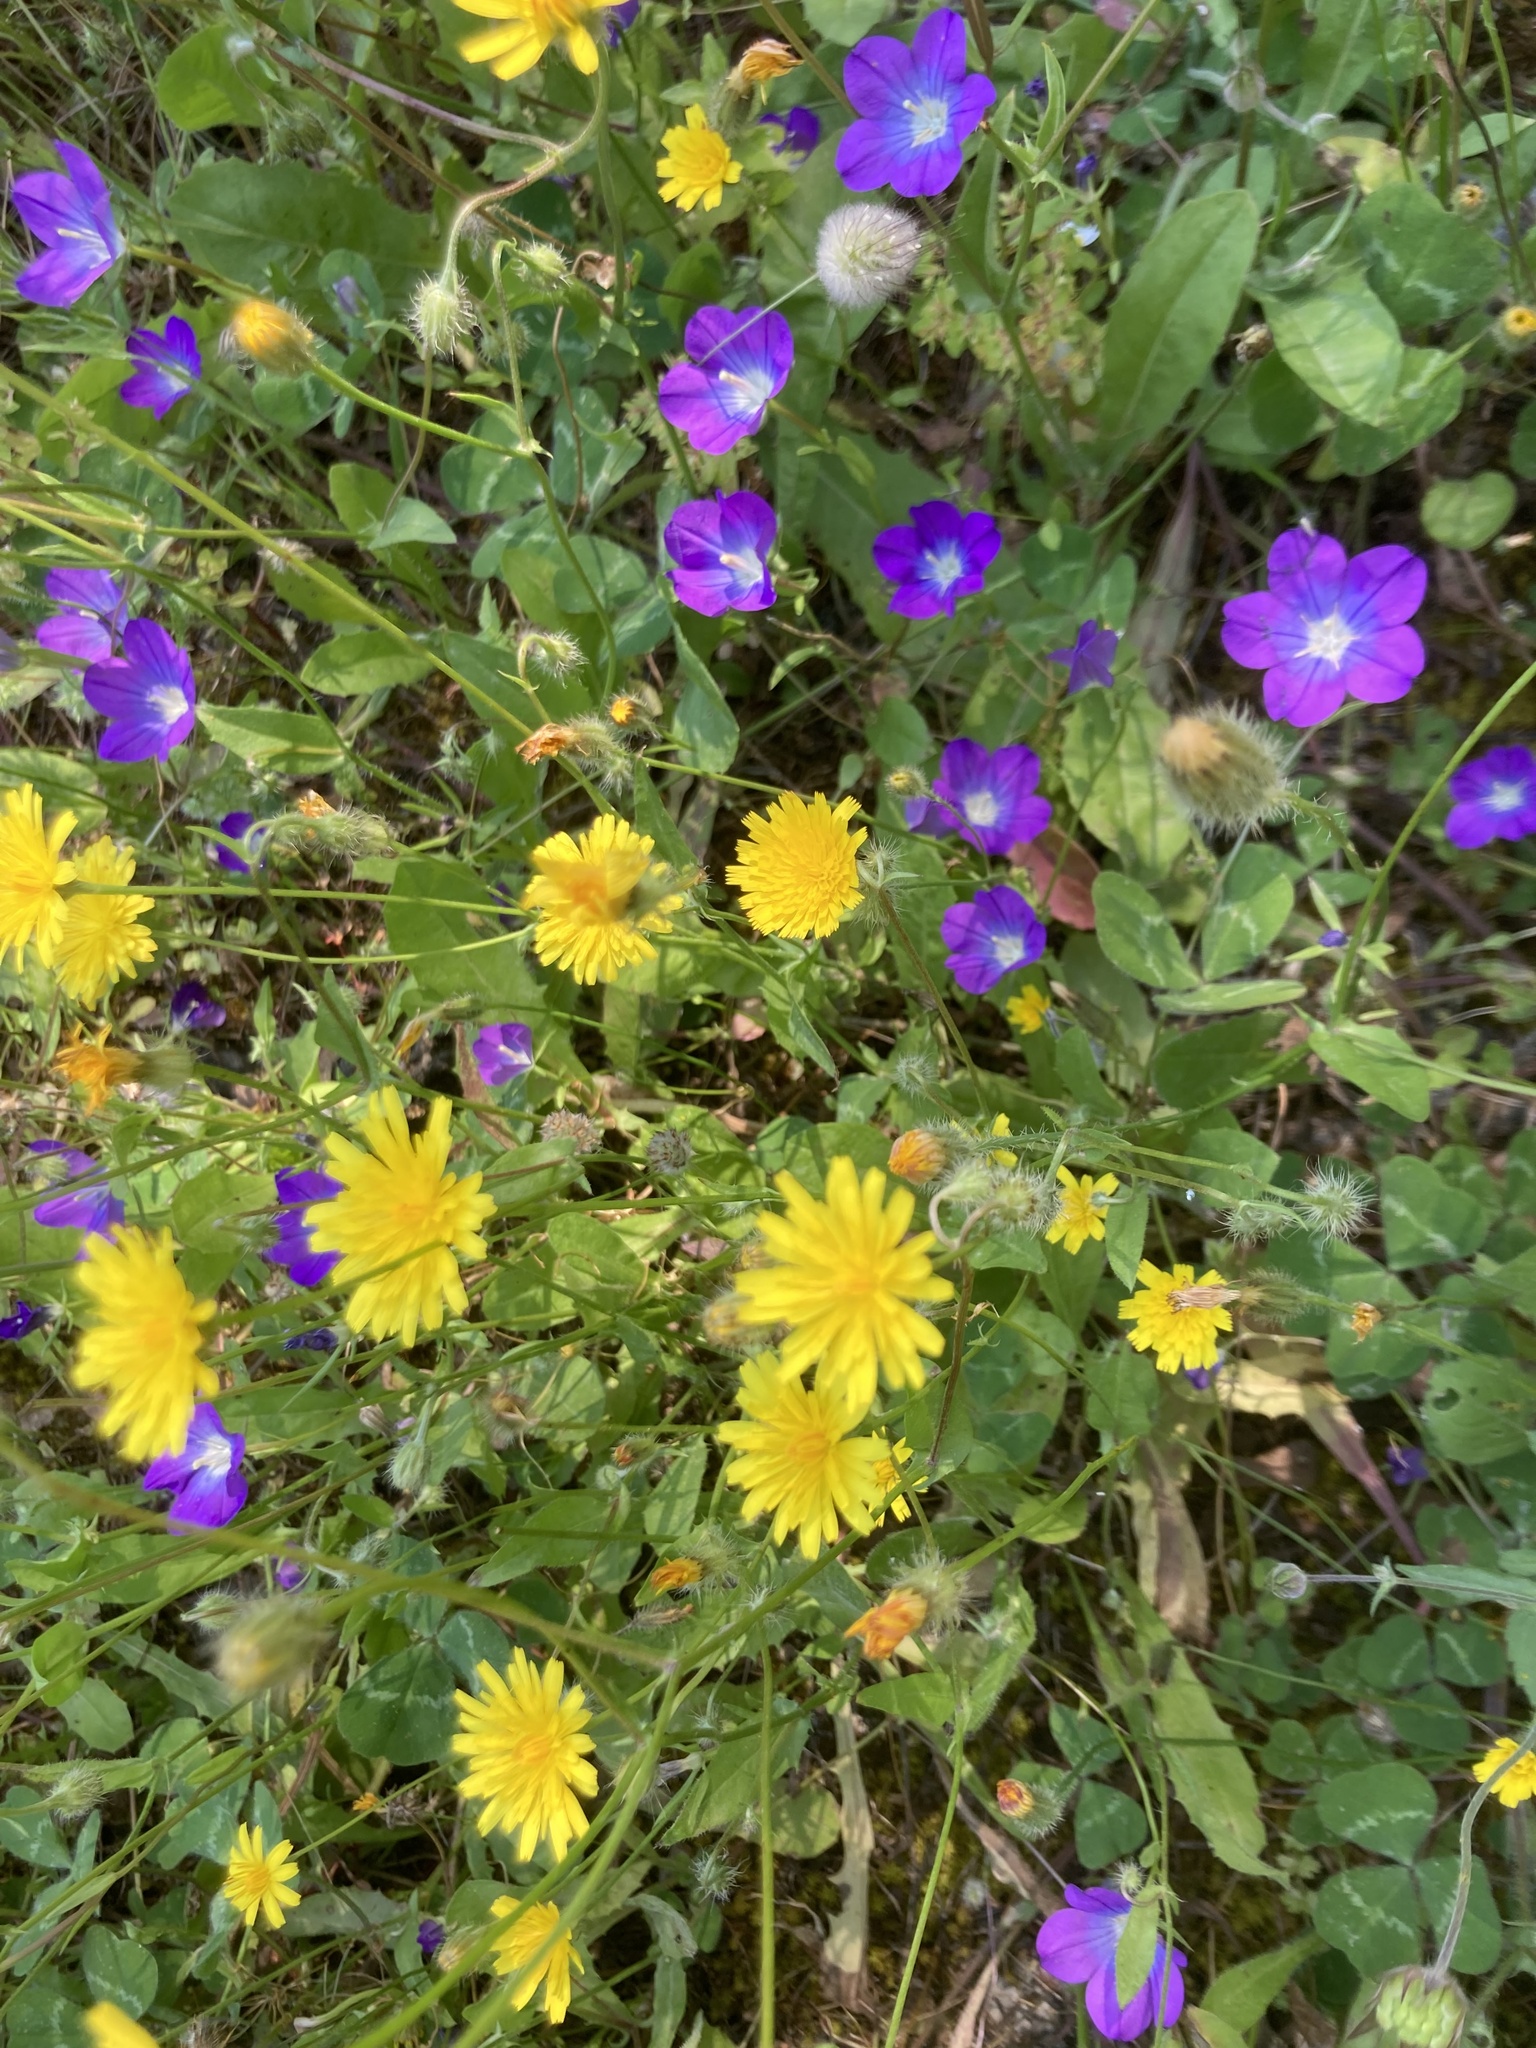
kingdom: Plantae
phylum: Tracheophyta
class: Magnoliopsida
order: Asterales
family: Asteraceae
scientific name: Asteraceae
